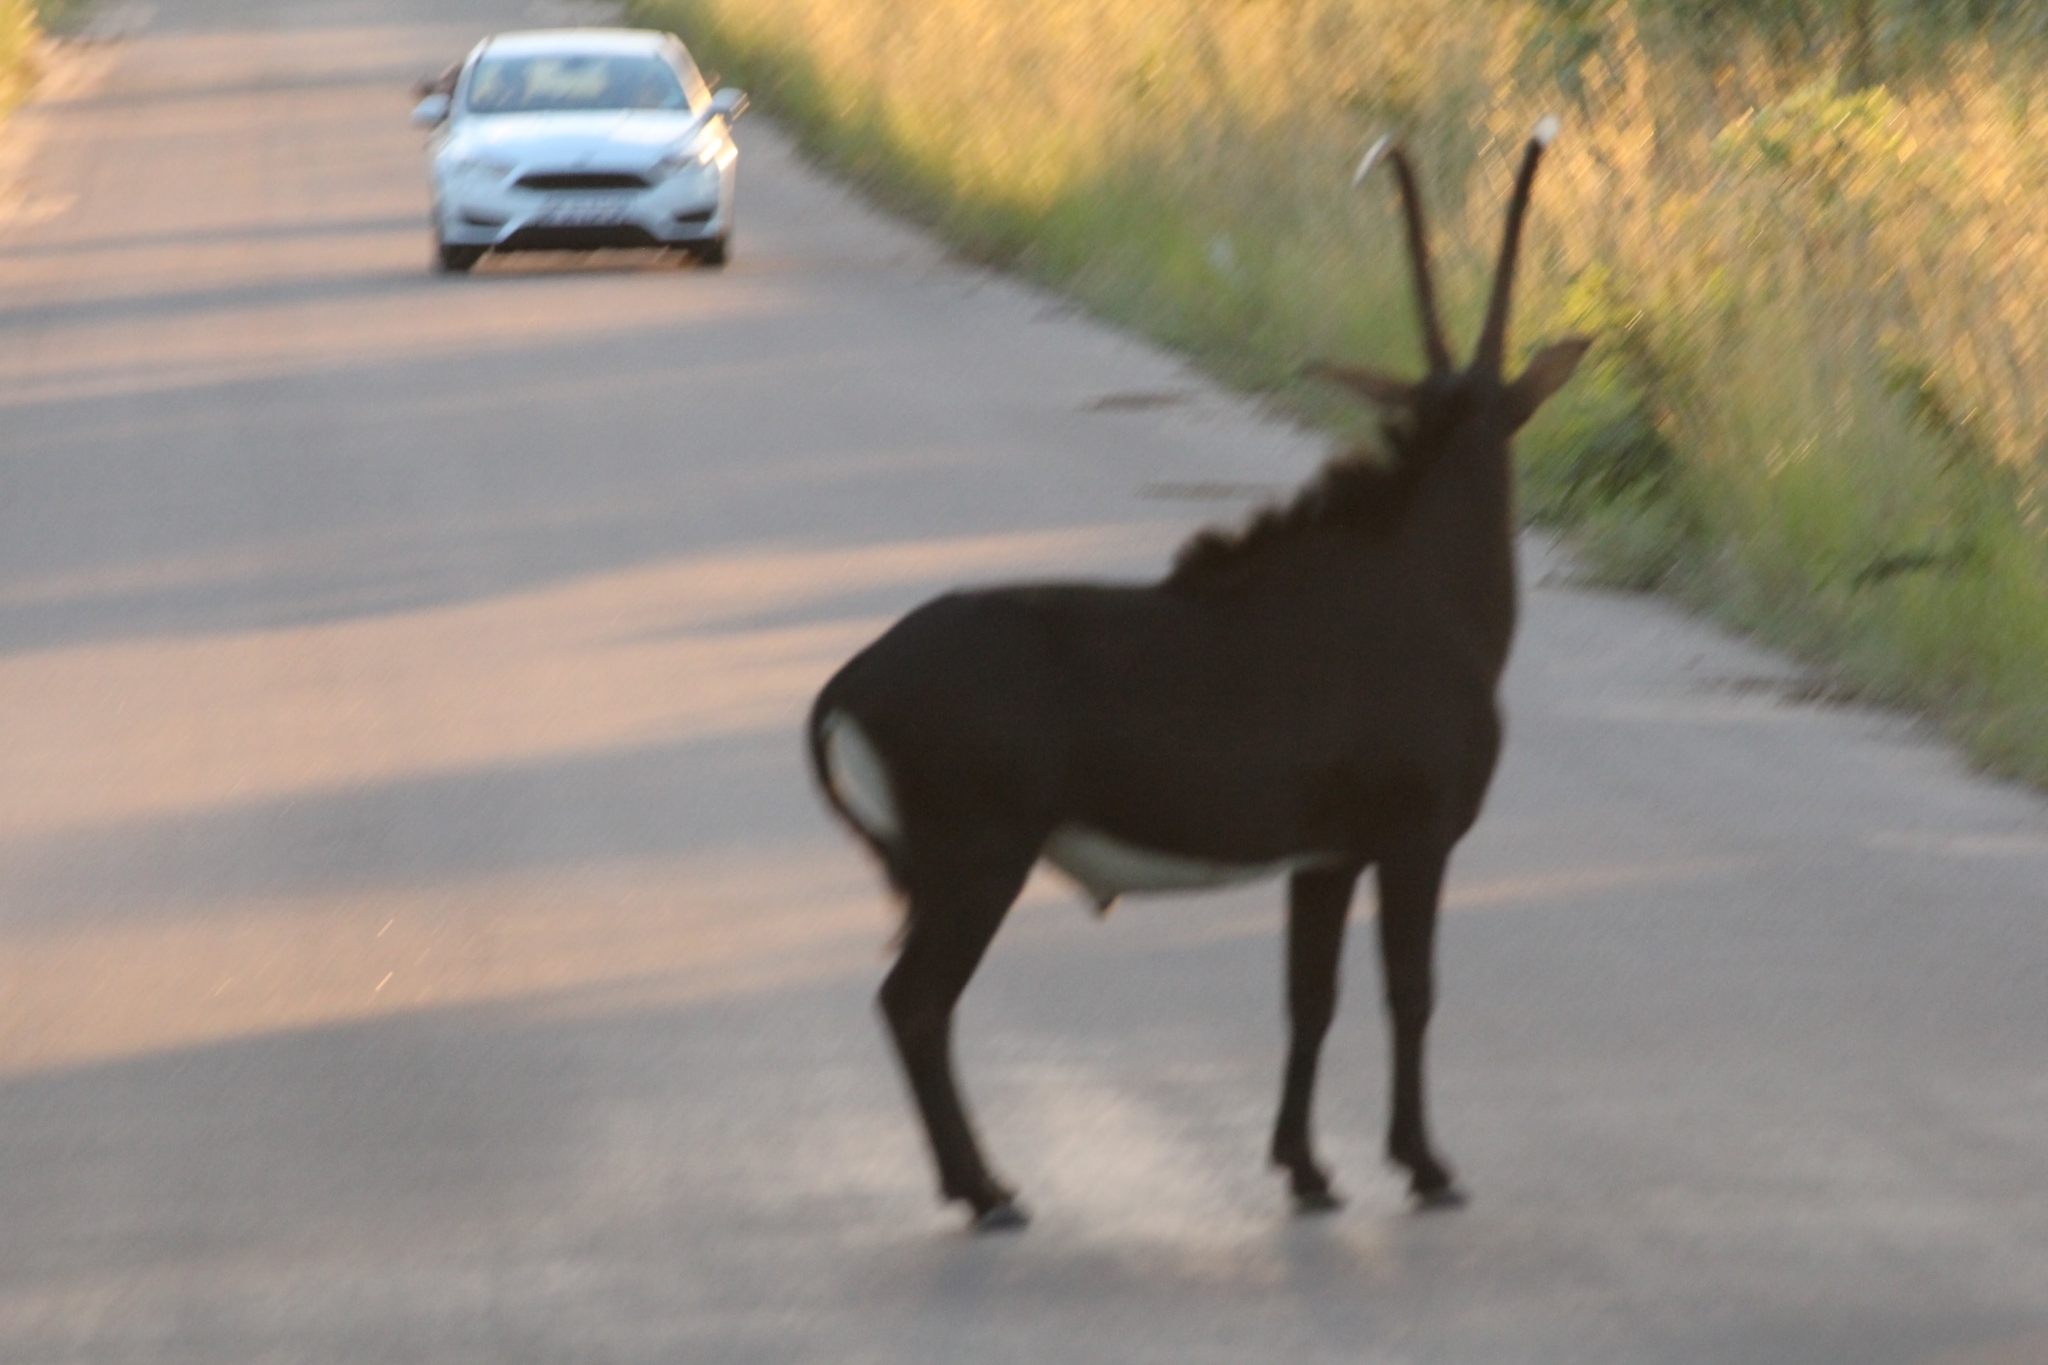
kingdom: Animalia
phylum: Chordata
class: Mammalia
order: Artiodactyla
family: Bovidae
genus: Hippotragus
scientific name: Hippotragus niger
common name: Sable antelope
